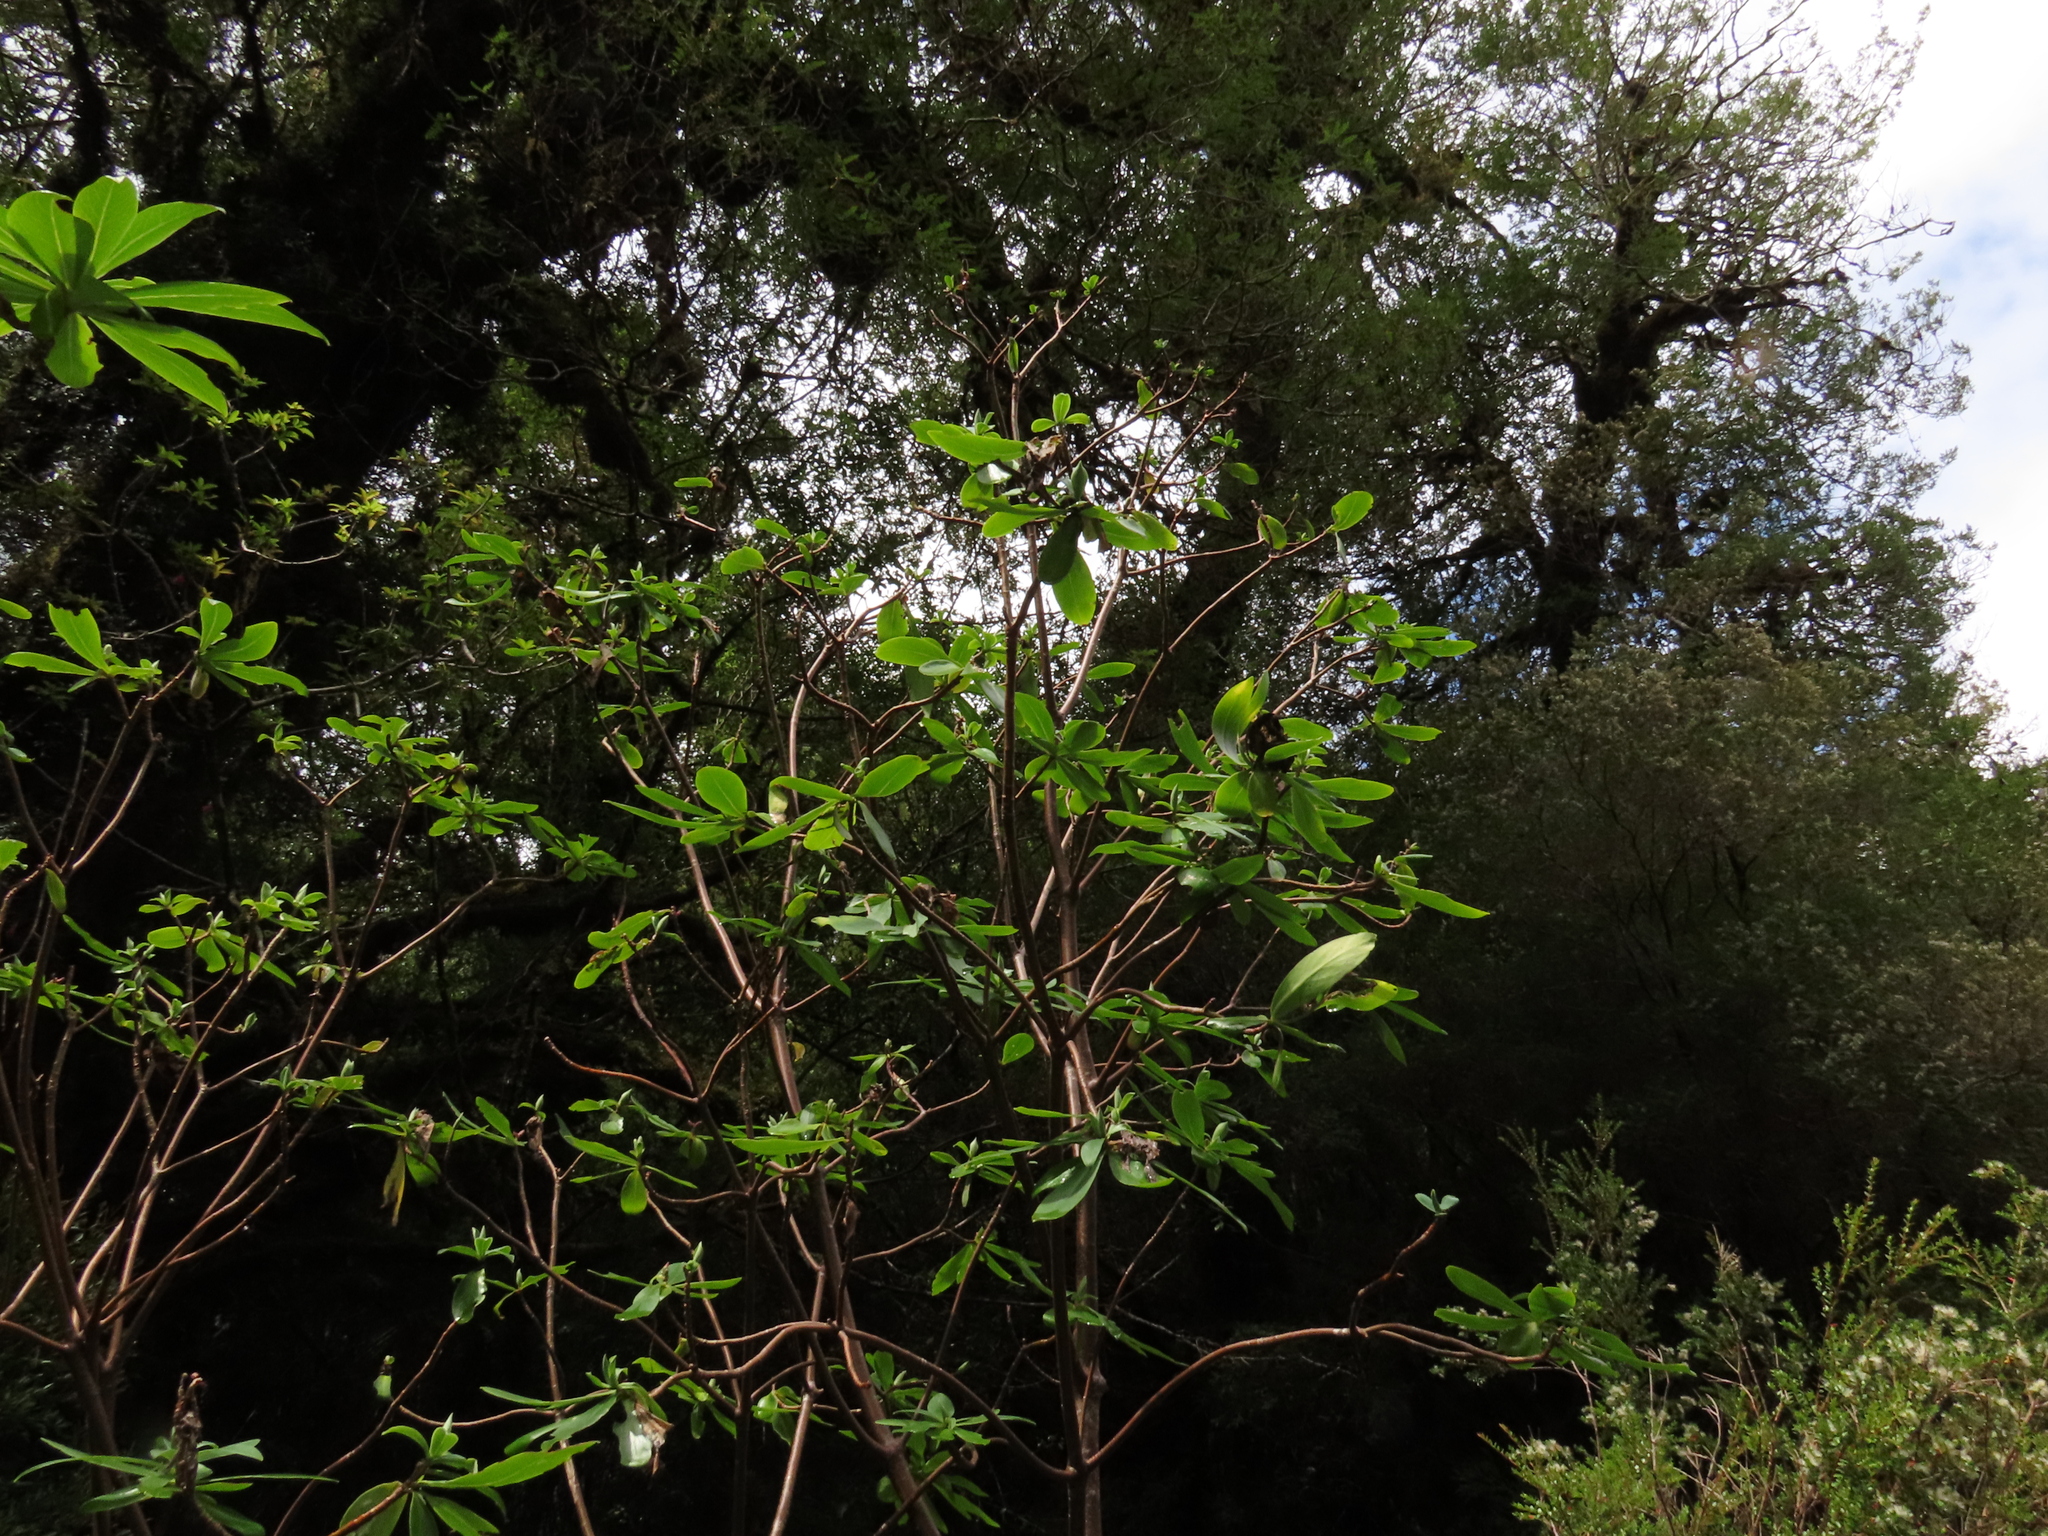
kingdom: Plantae
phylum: Tracheophyta
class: Magnoliopsida
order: Malvales
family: Thymelaeaceae
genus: Ovidia
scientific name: Ovidia andina
